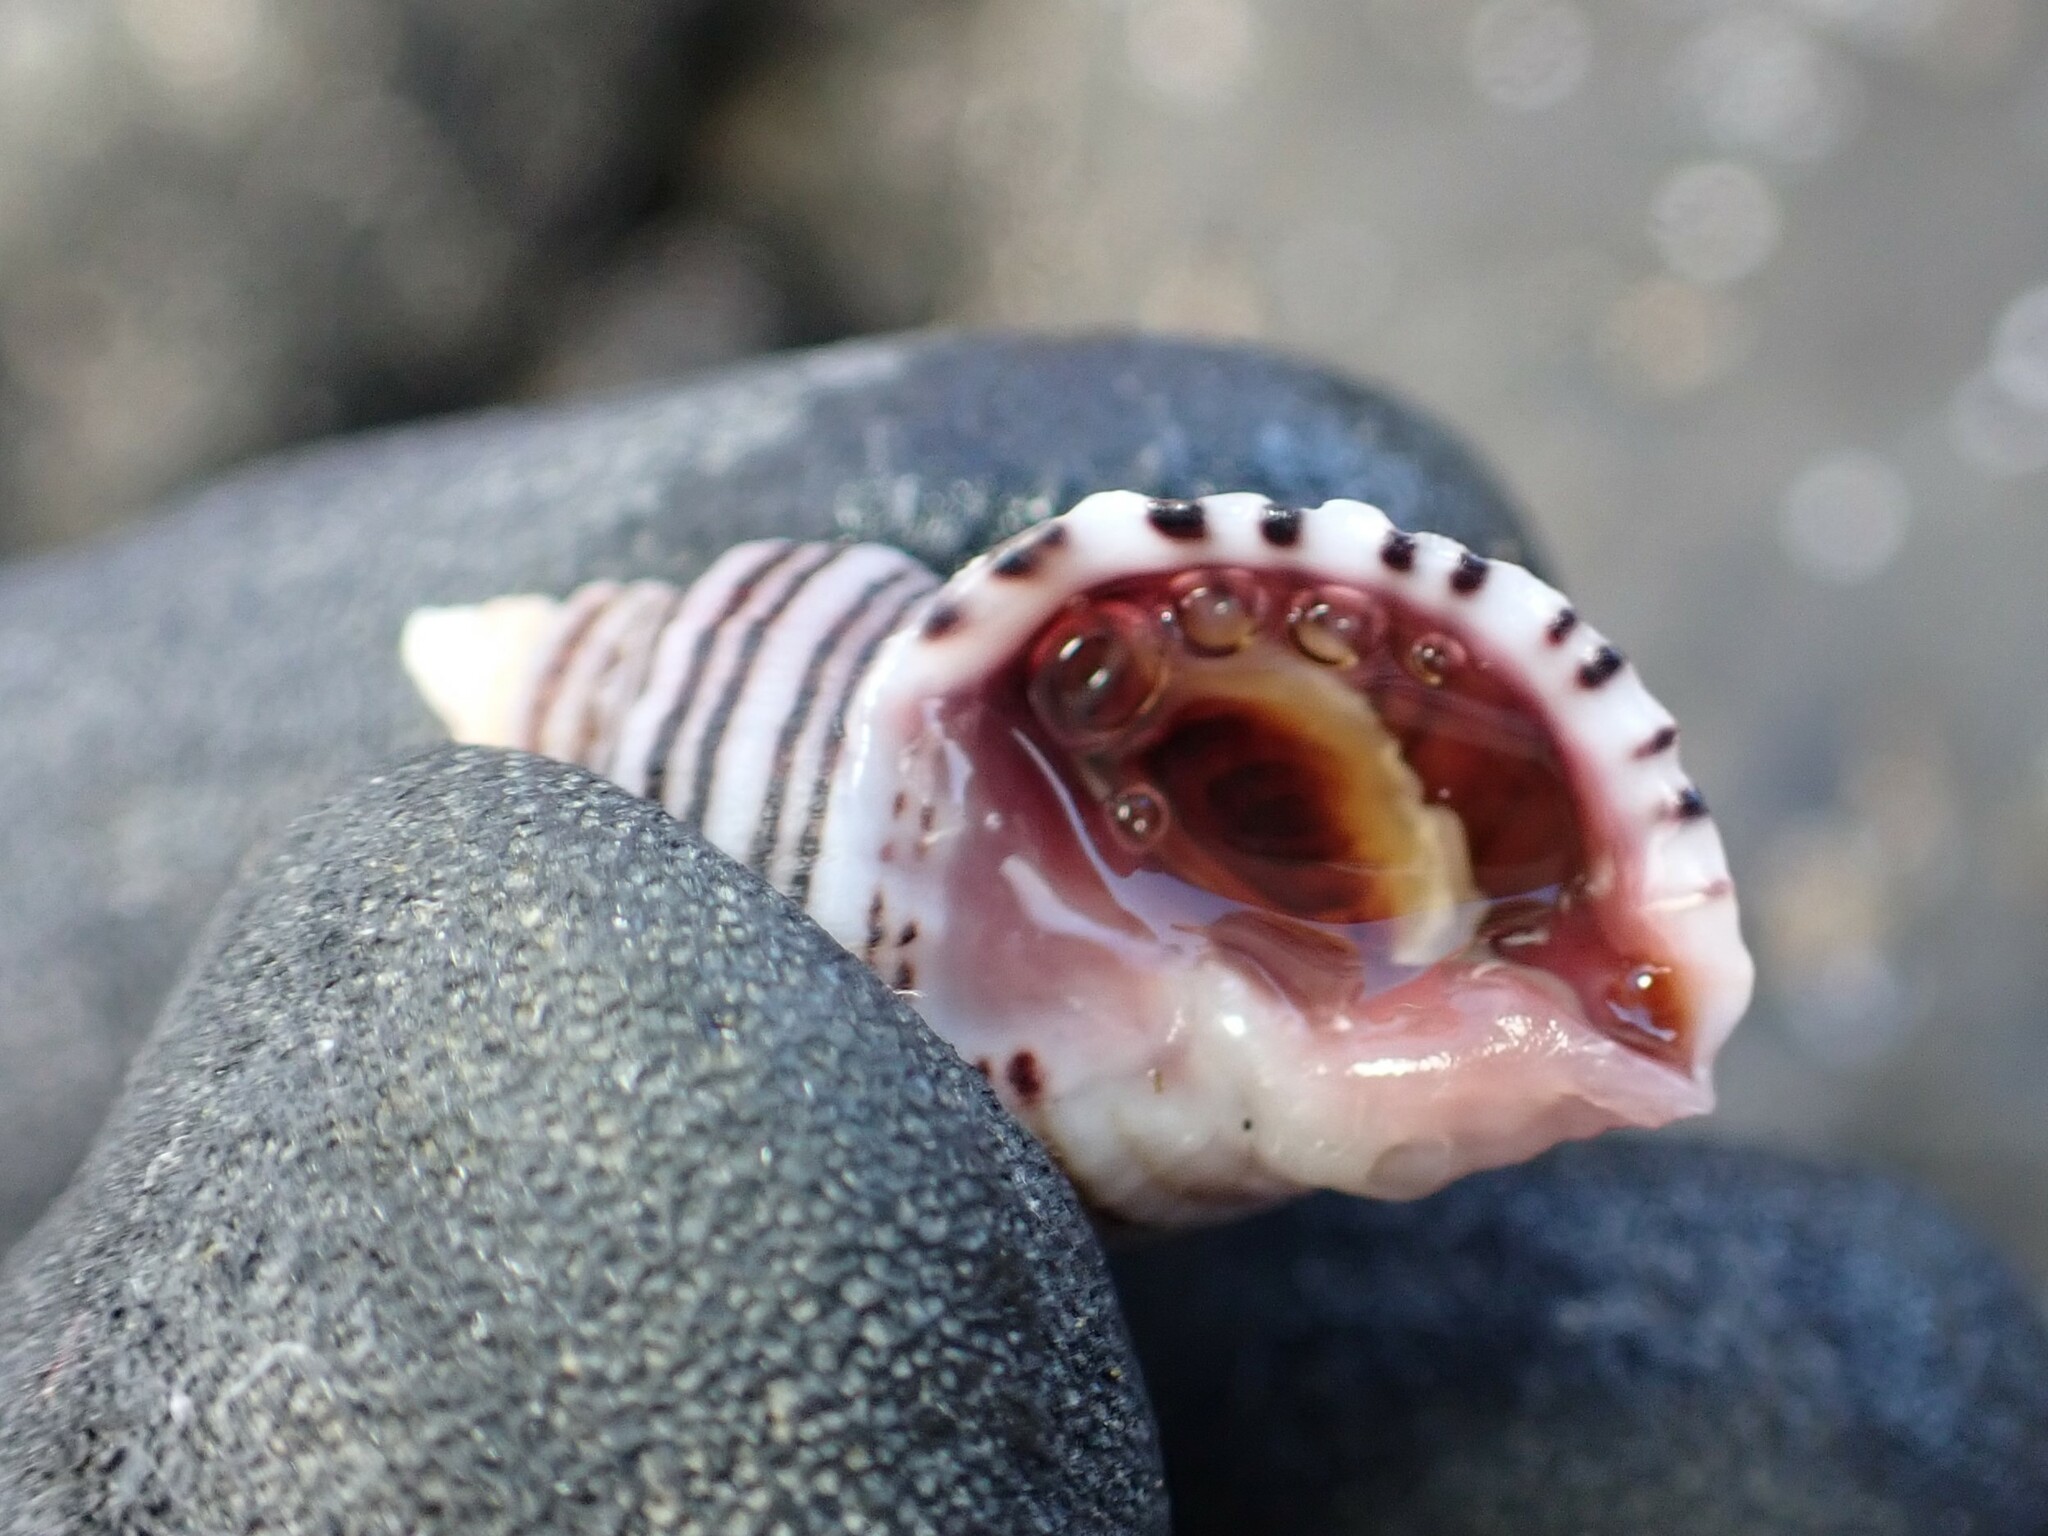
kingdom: Animalia
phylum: Mollusca
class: Gastropoda
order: Neogastropoda
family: Muricidae
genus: Nucella
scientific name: Nucella ostrina
